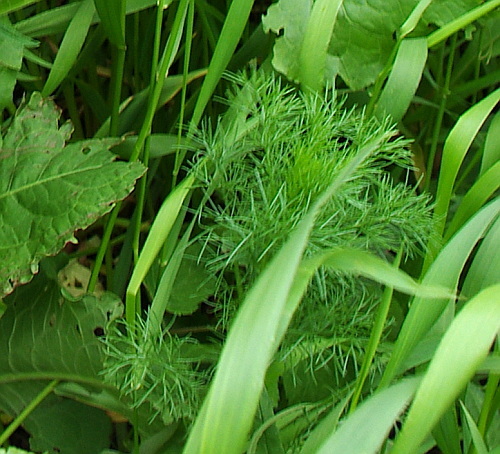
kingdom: Plantae
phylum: Tracheophyta
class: Magnoliopsida
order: Asterales
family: Asteraceae
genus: Tripleurospermum
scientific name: Tripleurospermum inodorum
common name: Scentless mayweed
